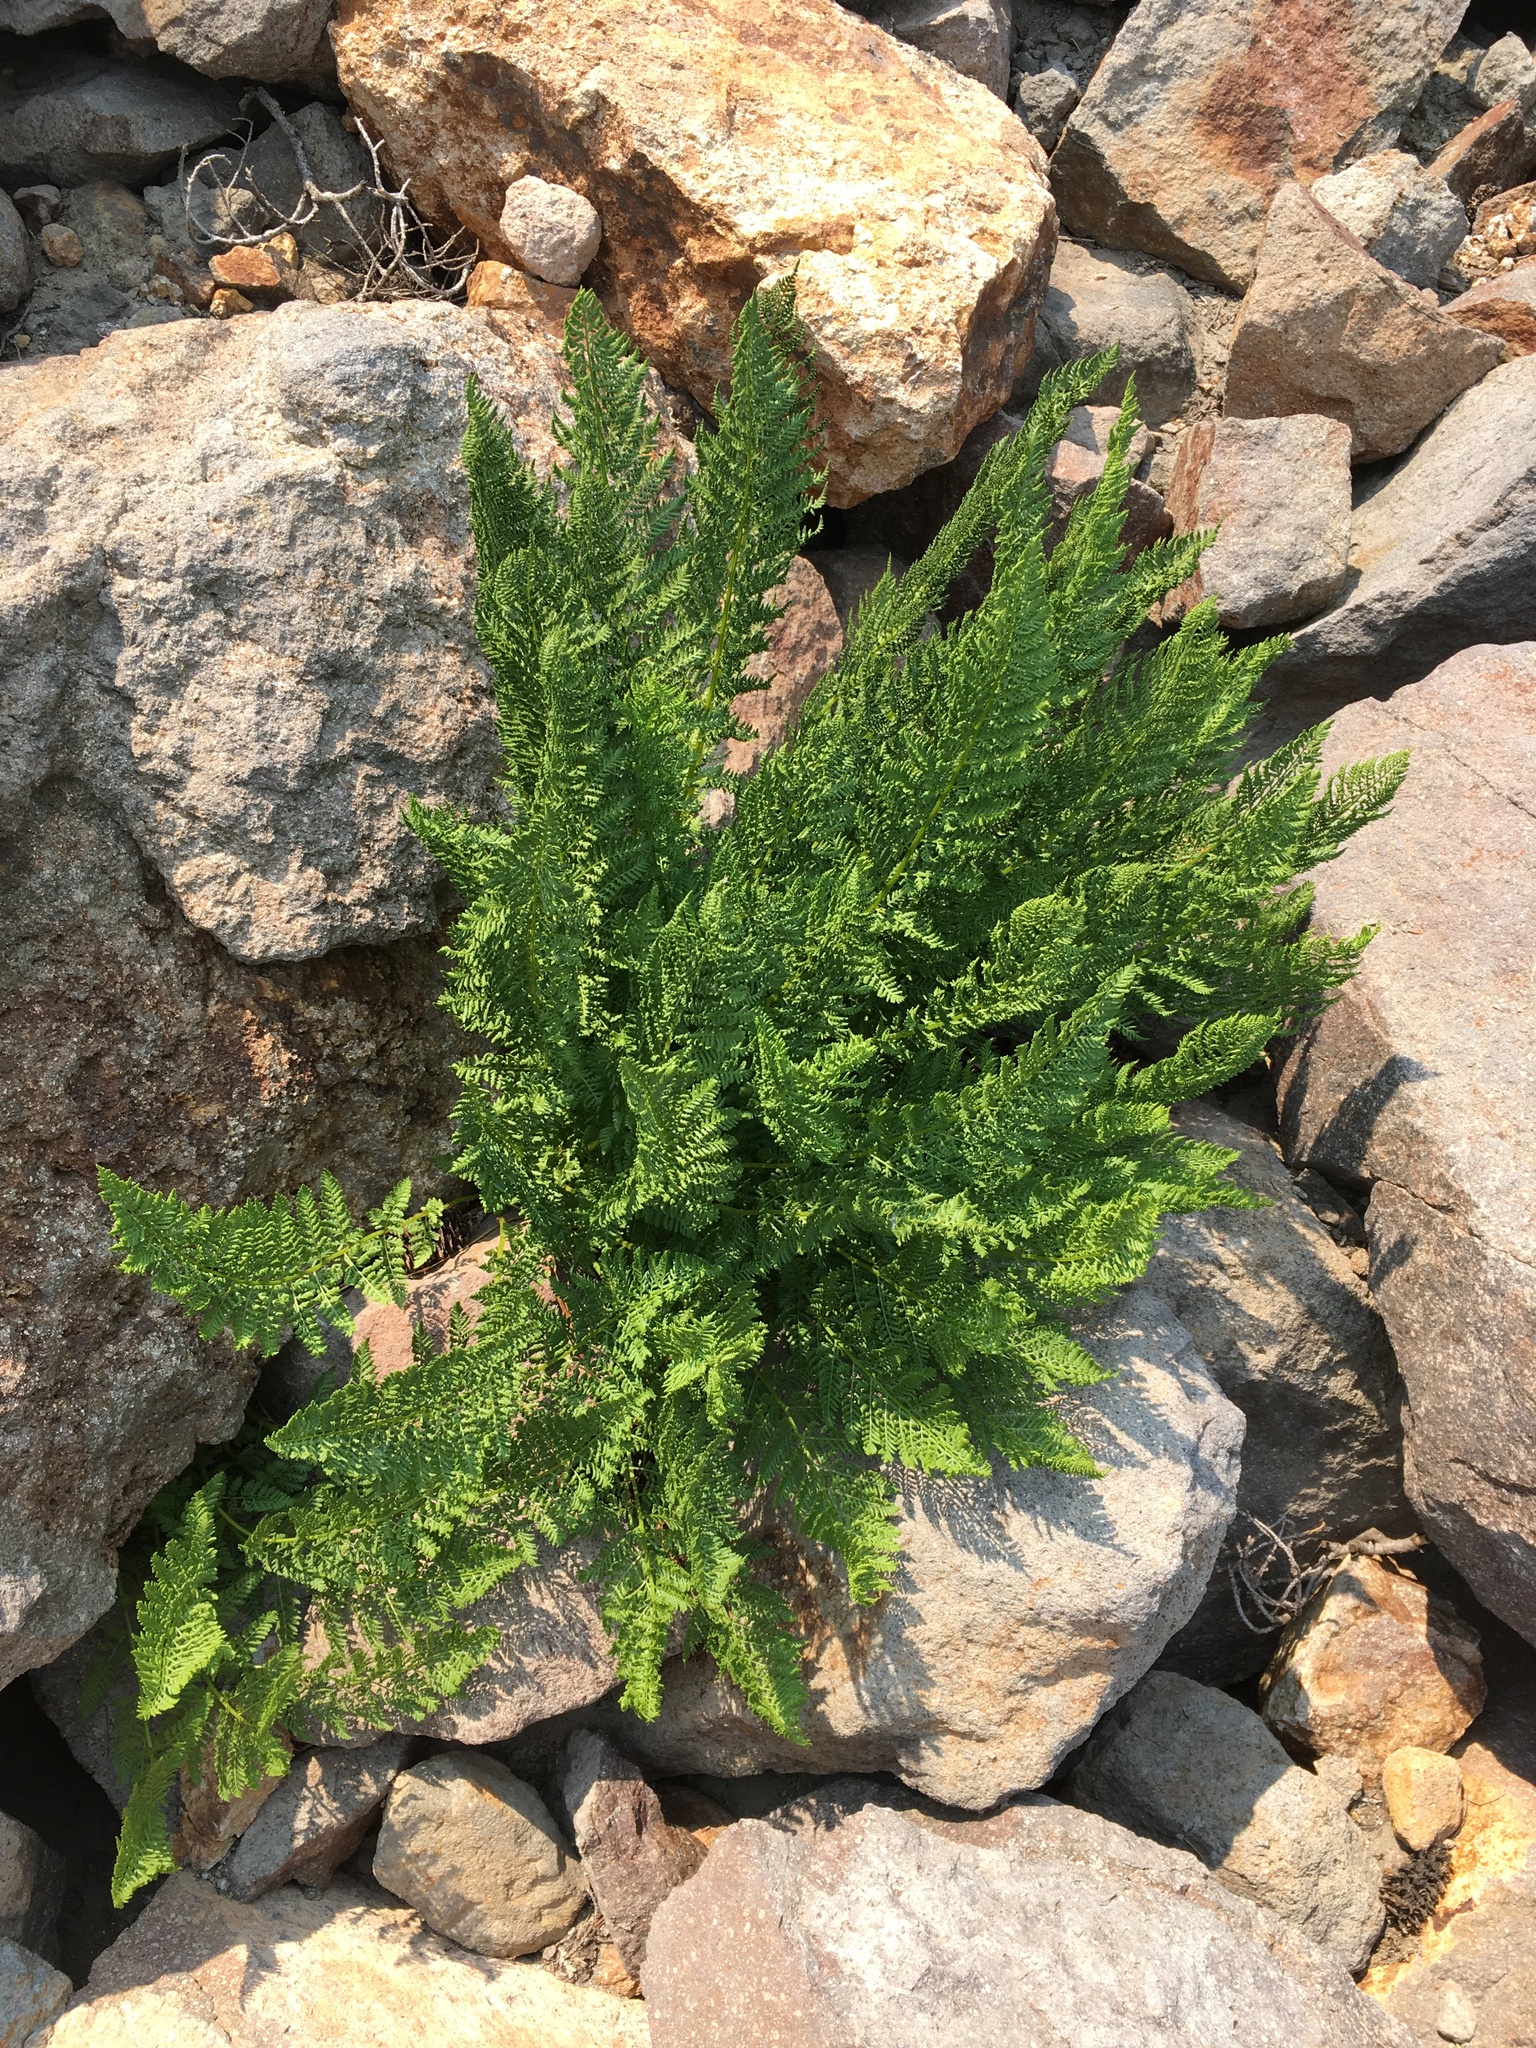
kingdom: Plantae
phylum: Tracheophyta
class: Polypodiopsida
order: Polypodiales
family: Athyriaceae
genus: Athyrium
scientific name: Athyrium americanum
